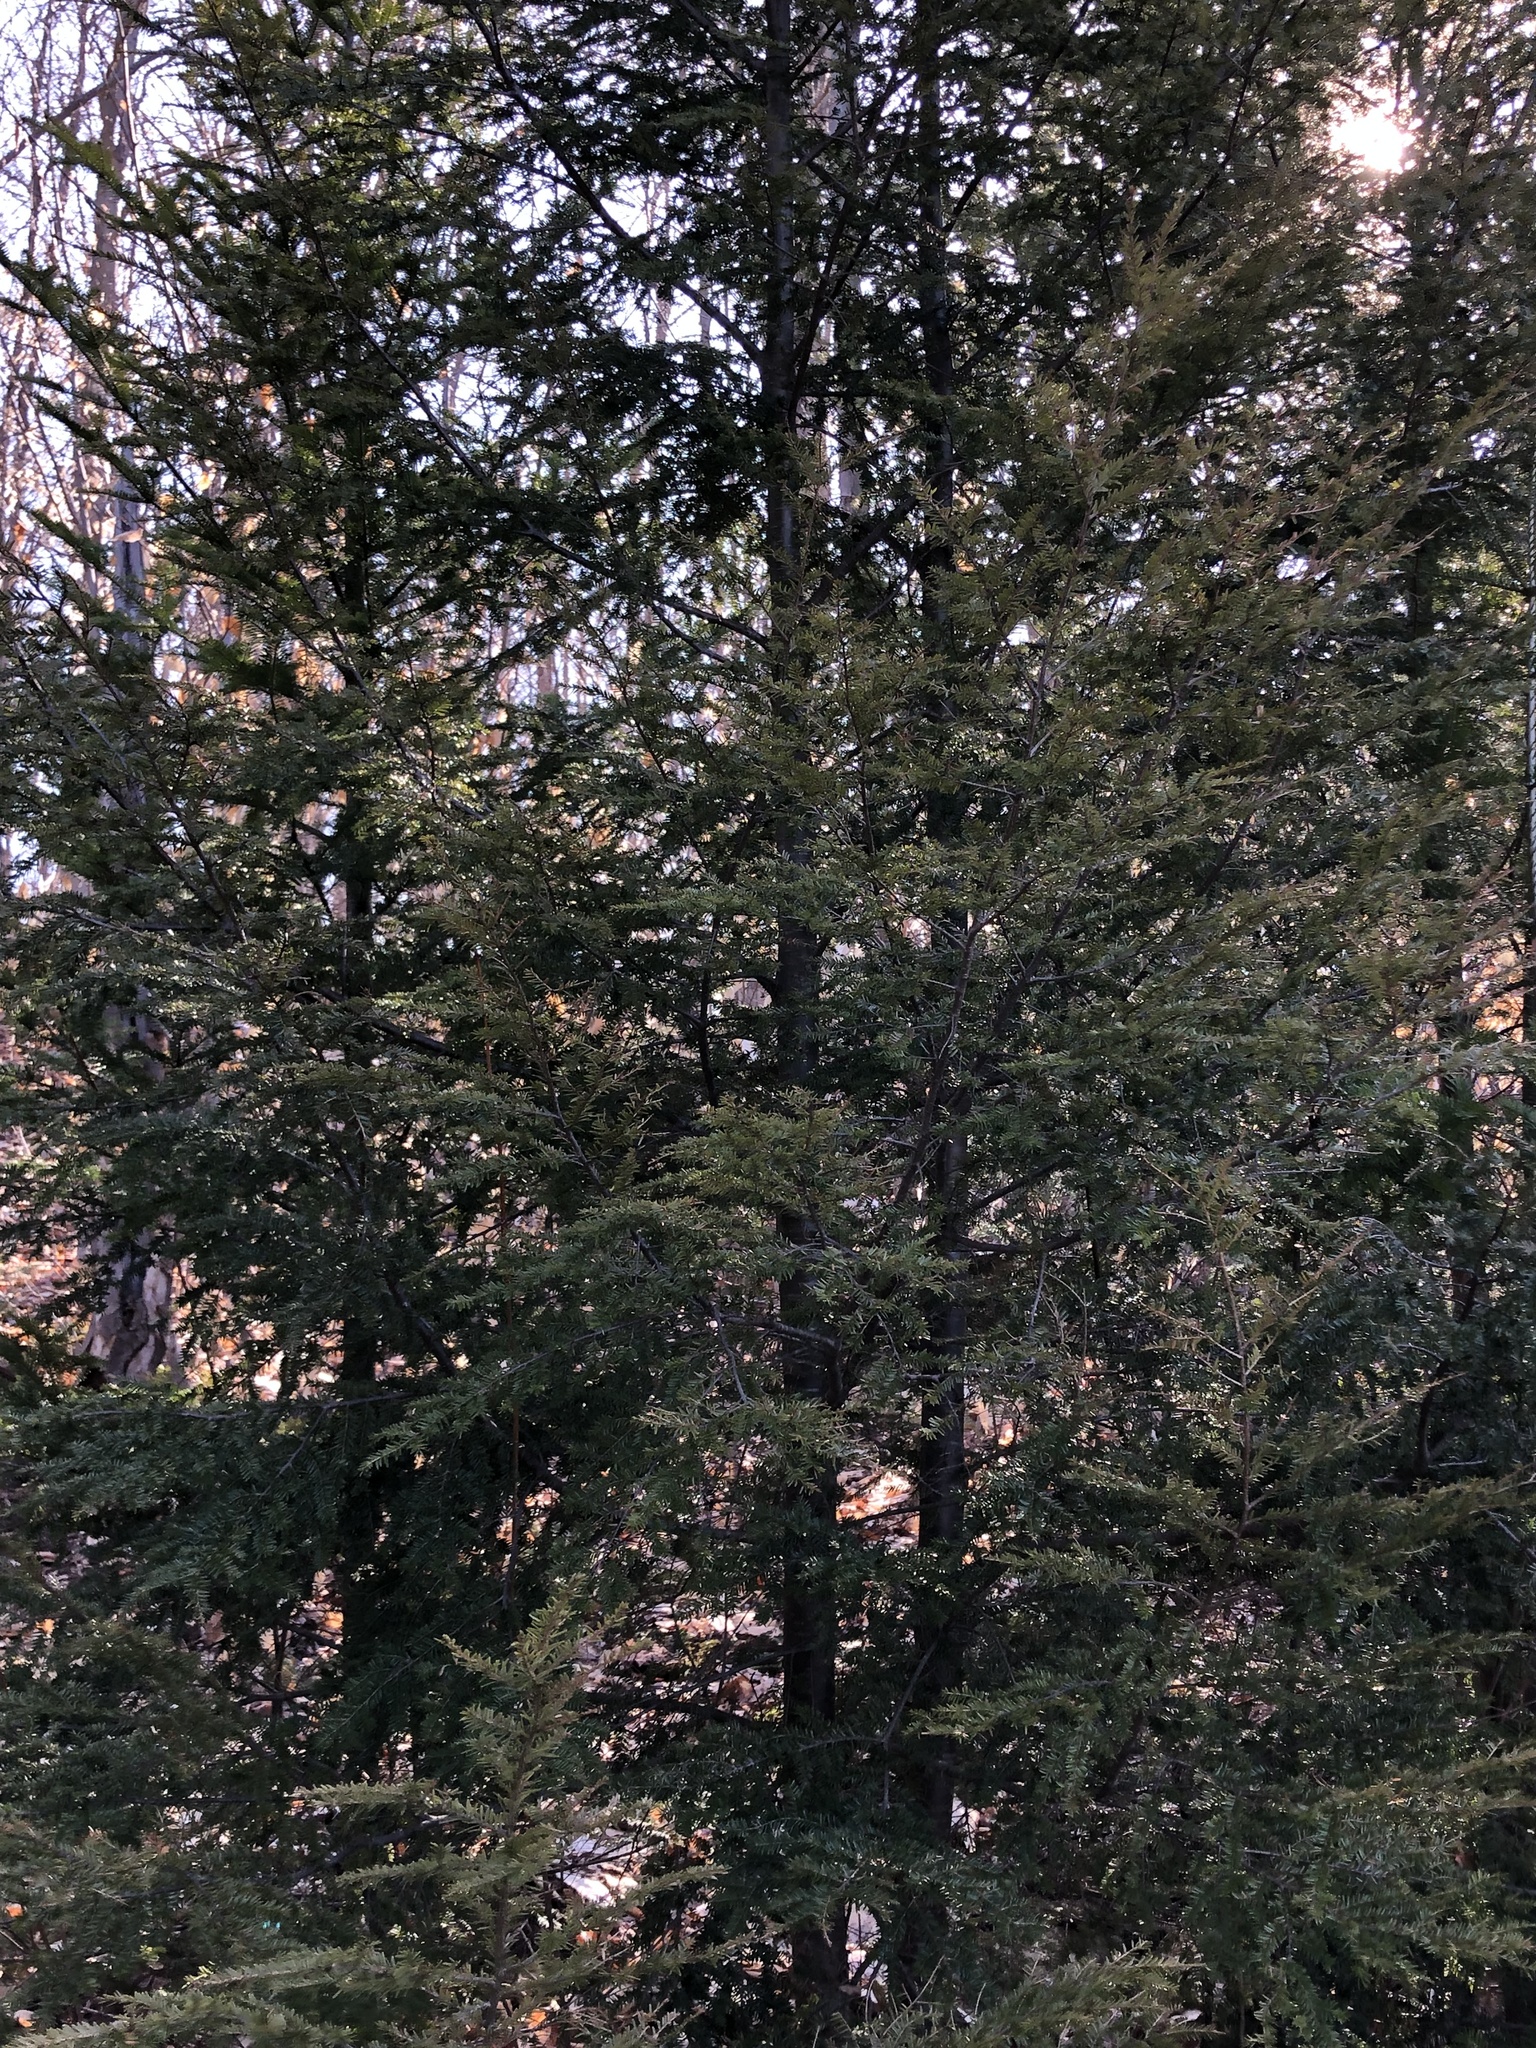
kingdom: Plantae
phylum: Tracheophyta
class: Pinopsida
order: Pinales
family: Pinaceae
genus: Tsuga
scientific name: Tsuga canadensis
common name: Eastern hemlock
